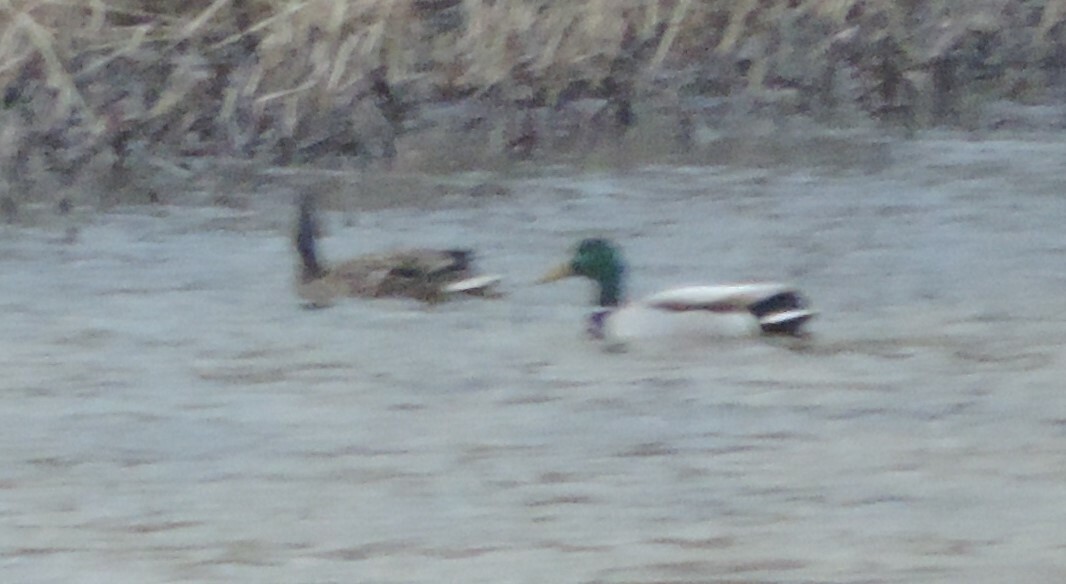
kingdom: Animalia
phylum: Chordata
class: Aves
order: Anseriformes
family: Anatidae
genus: Anas
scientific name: Anas platyrhynchos
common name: Mallard
